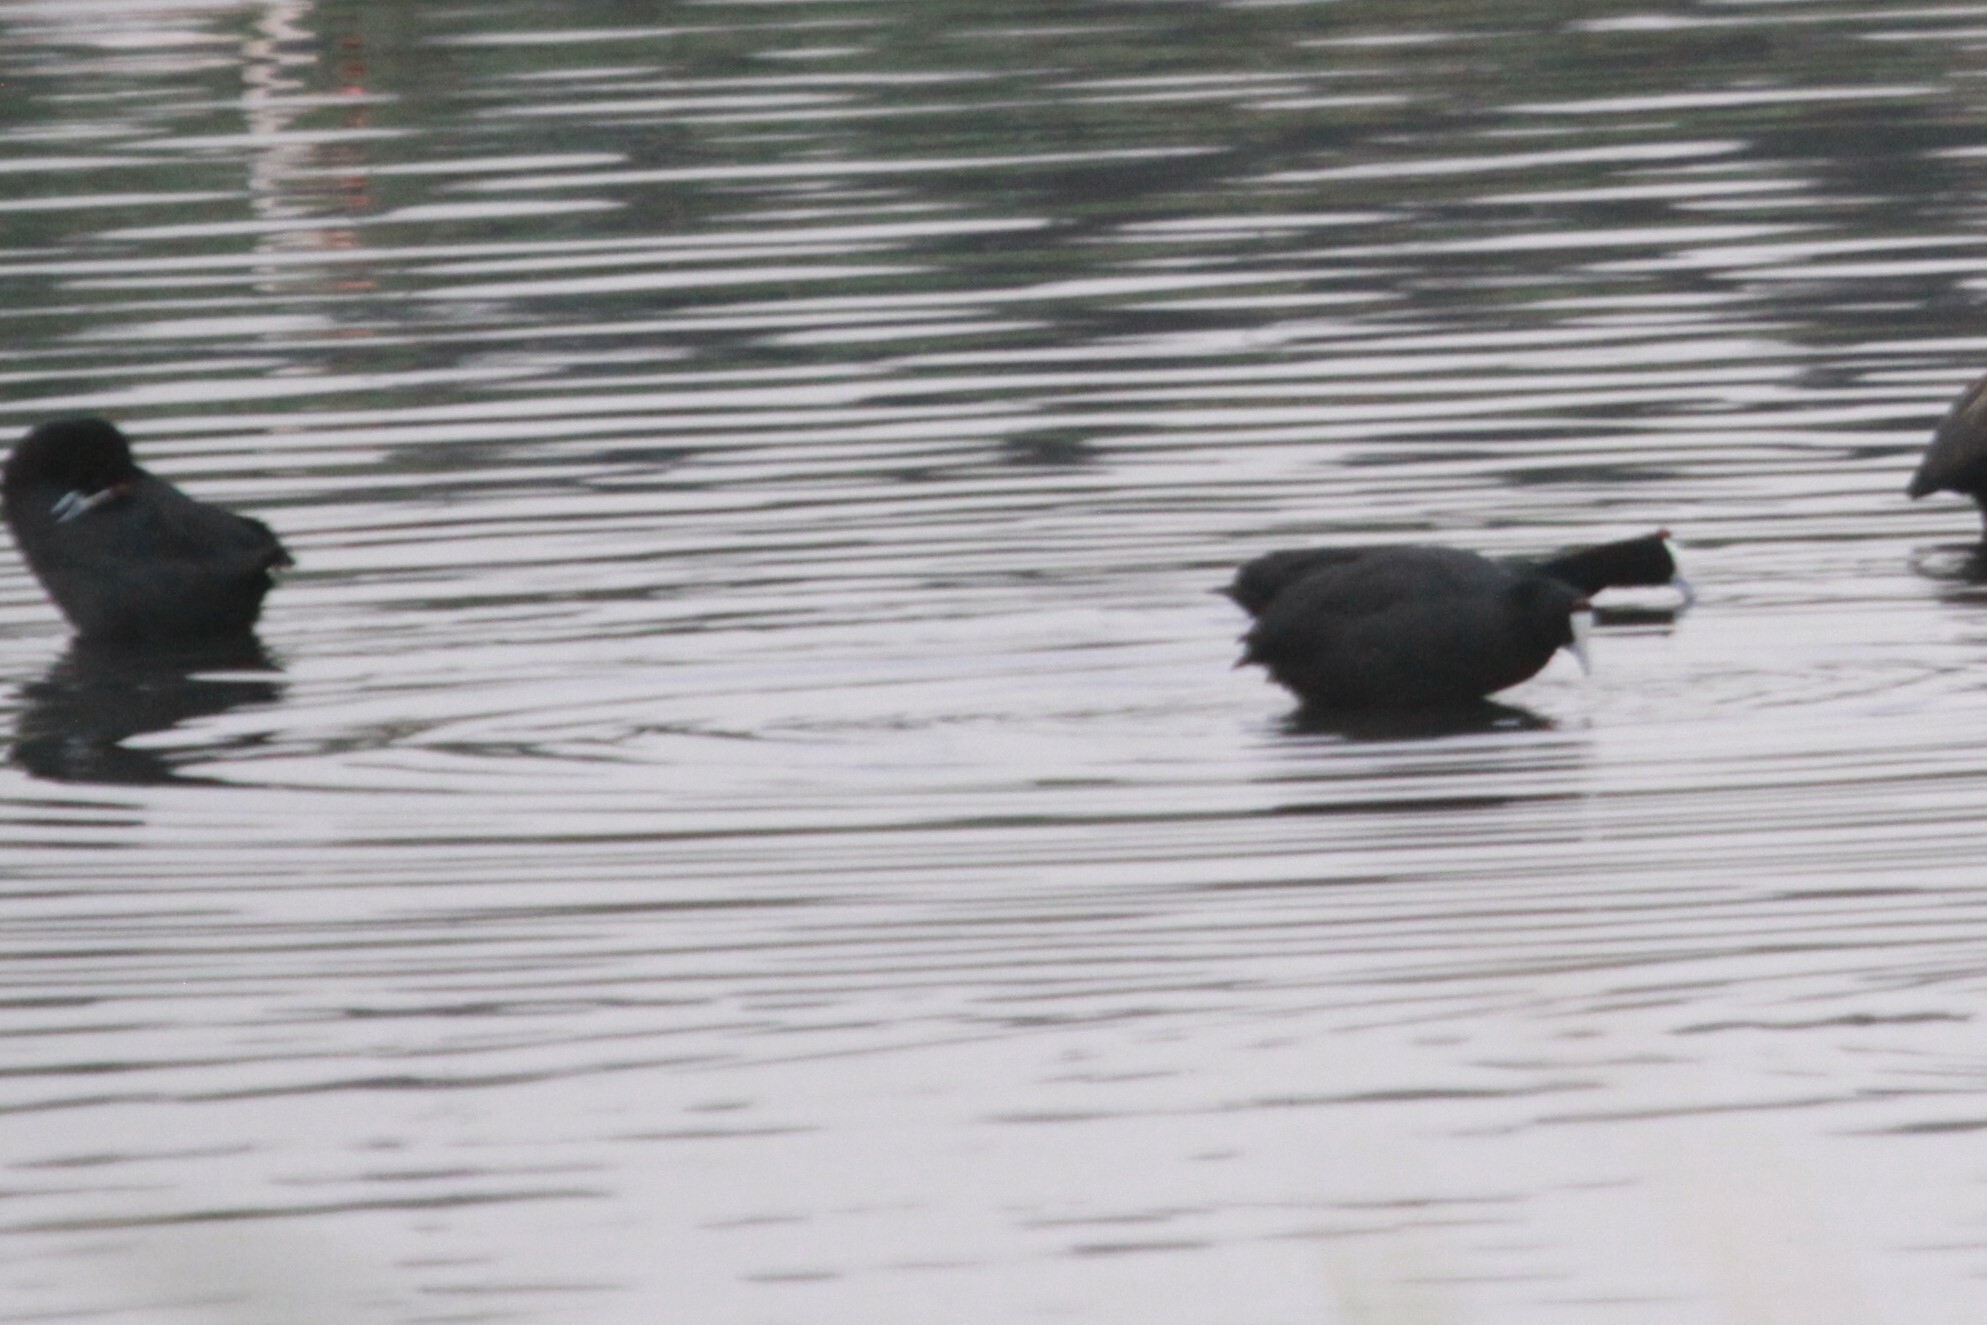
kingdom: Animalia
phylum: Chordata
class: Aves
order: Gruiformes
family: Rallidae
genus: Fulica
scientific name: Fulica cristata
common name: Red-knobbed coot
